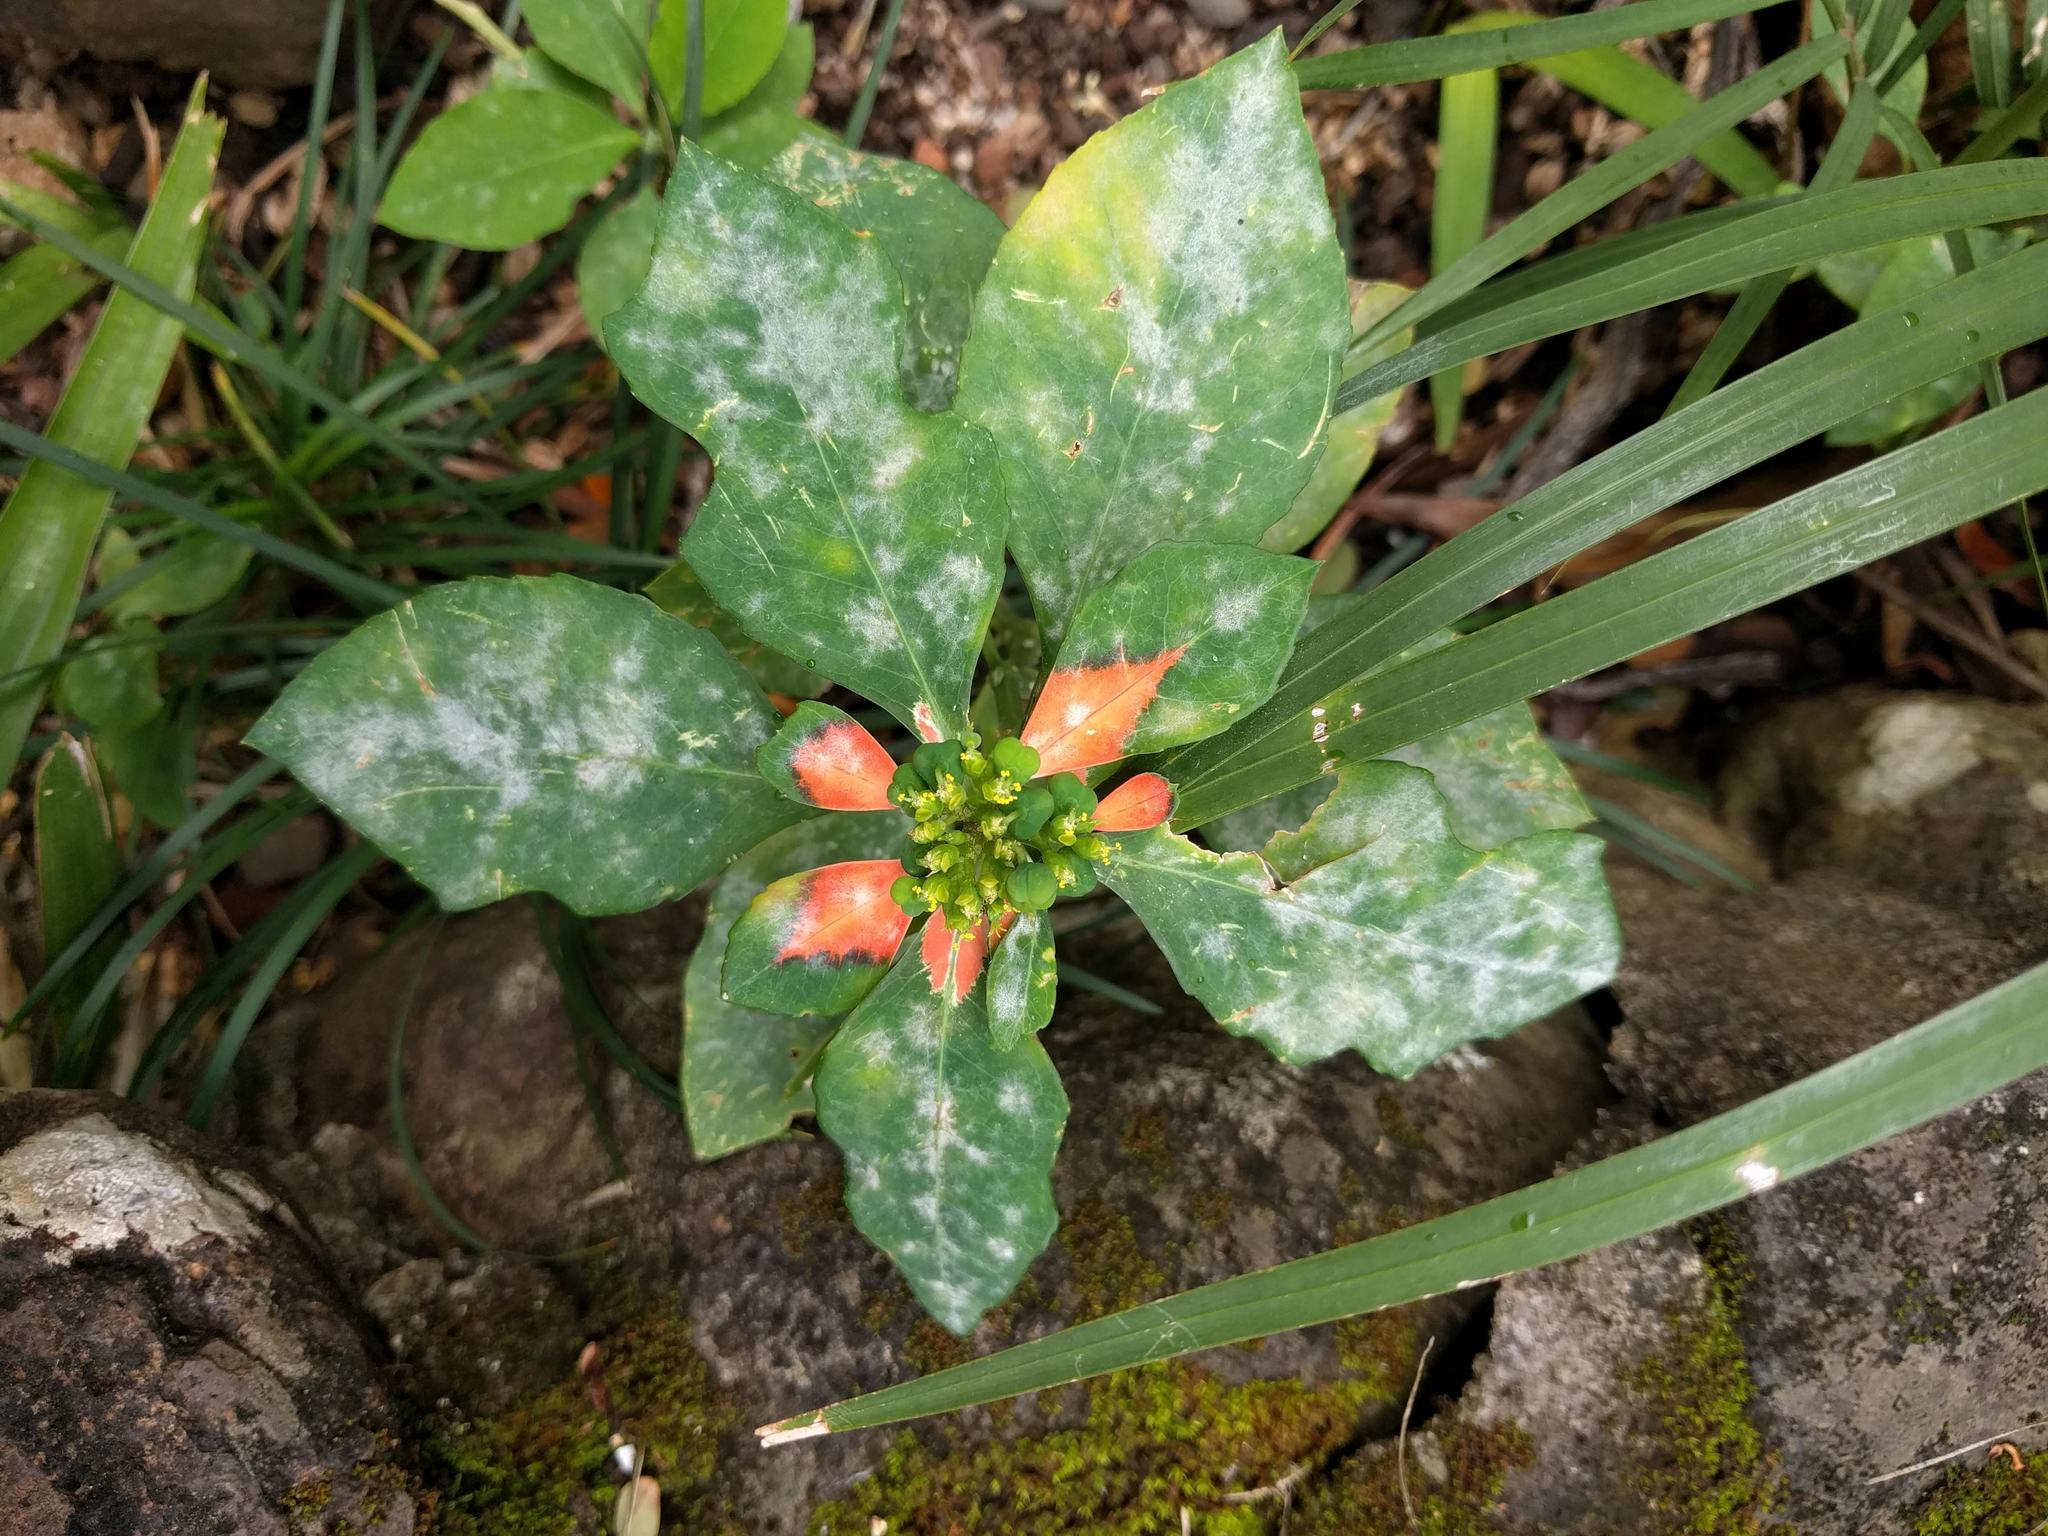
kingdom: Plantae
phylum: Tracheophyta
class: Magnoliopsida
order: Malpighiales
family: Euphorbiaceae
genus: Euphorbia
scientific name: Euphorbia heterophylla
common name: Mexican fireplant
